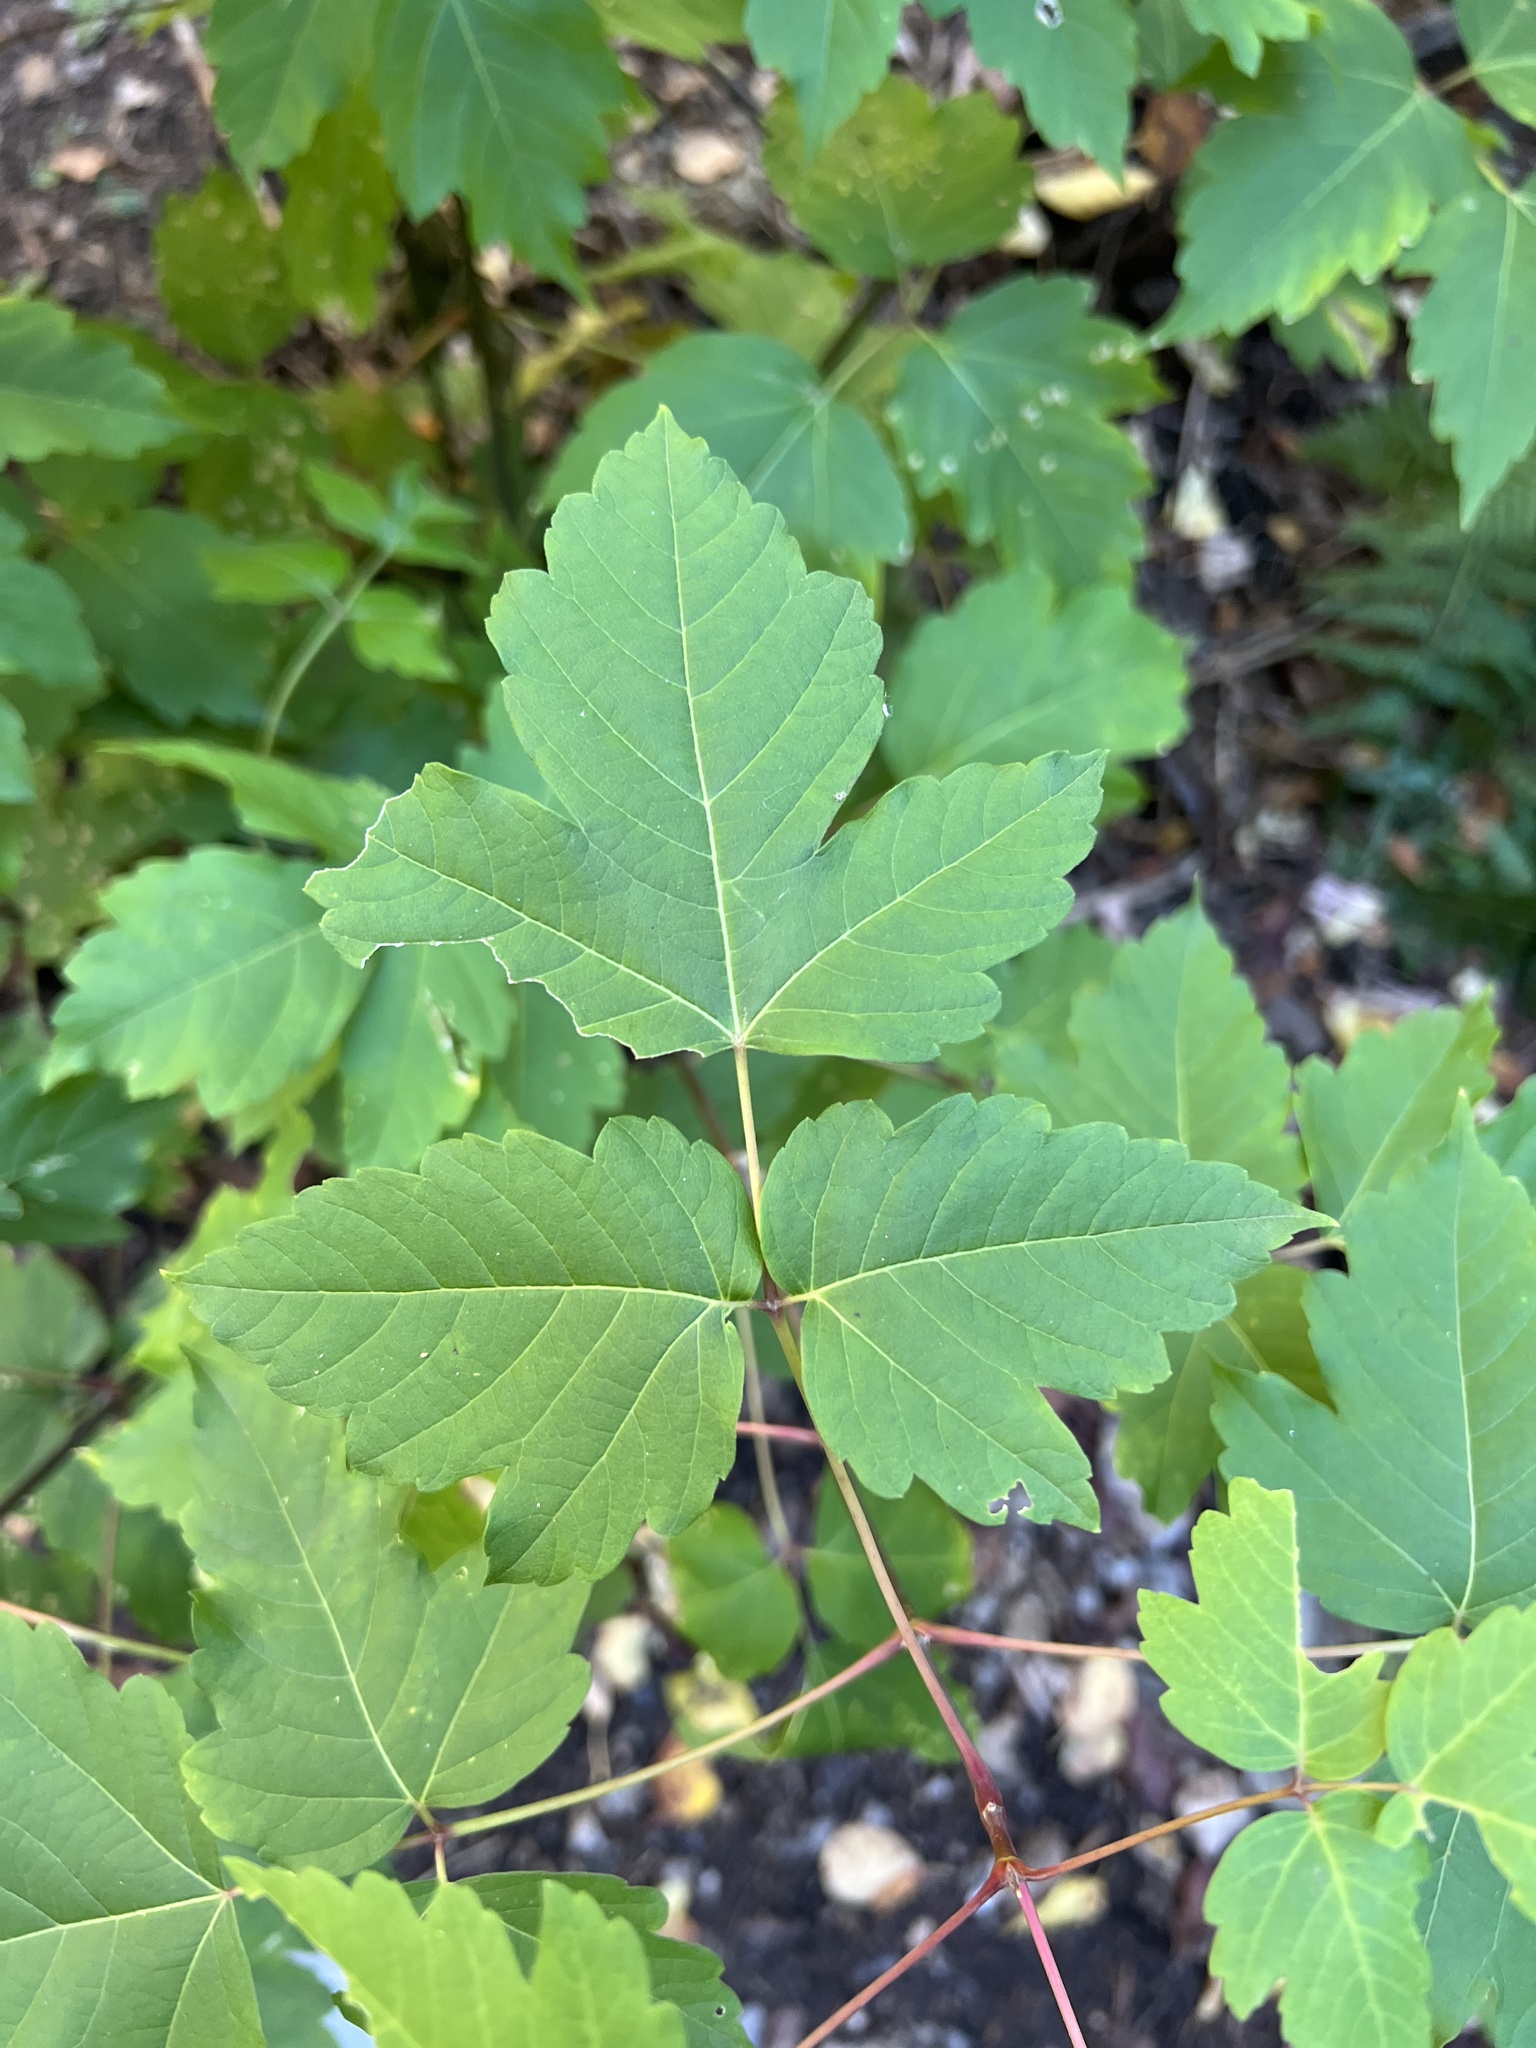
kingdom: Plantae
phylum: Tracheophyta
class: Magnoliopsida
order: Sapindales
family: Sapindaceae
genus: Acer
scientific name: Acer glabrum
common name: Rocky mountain maple
